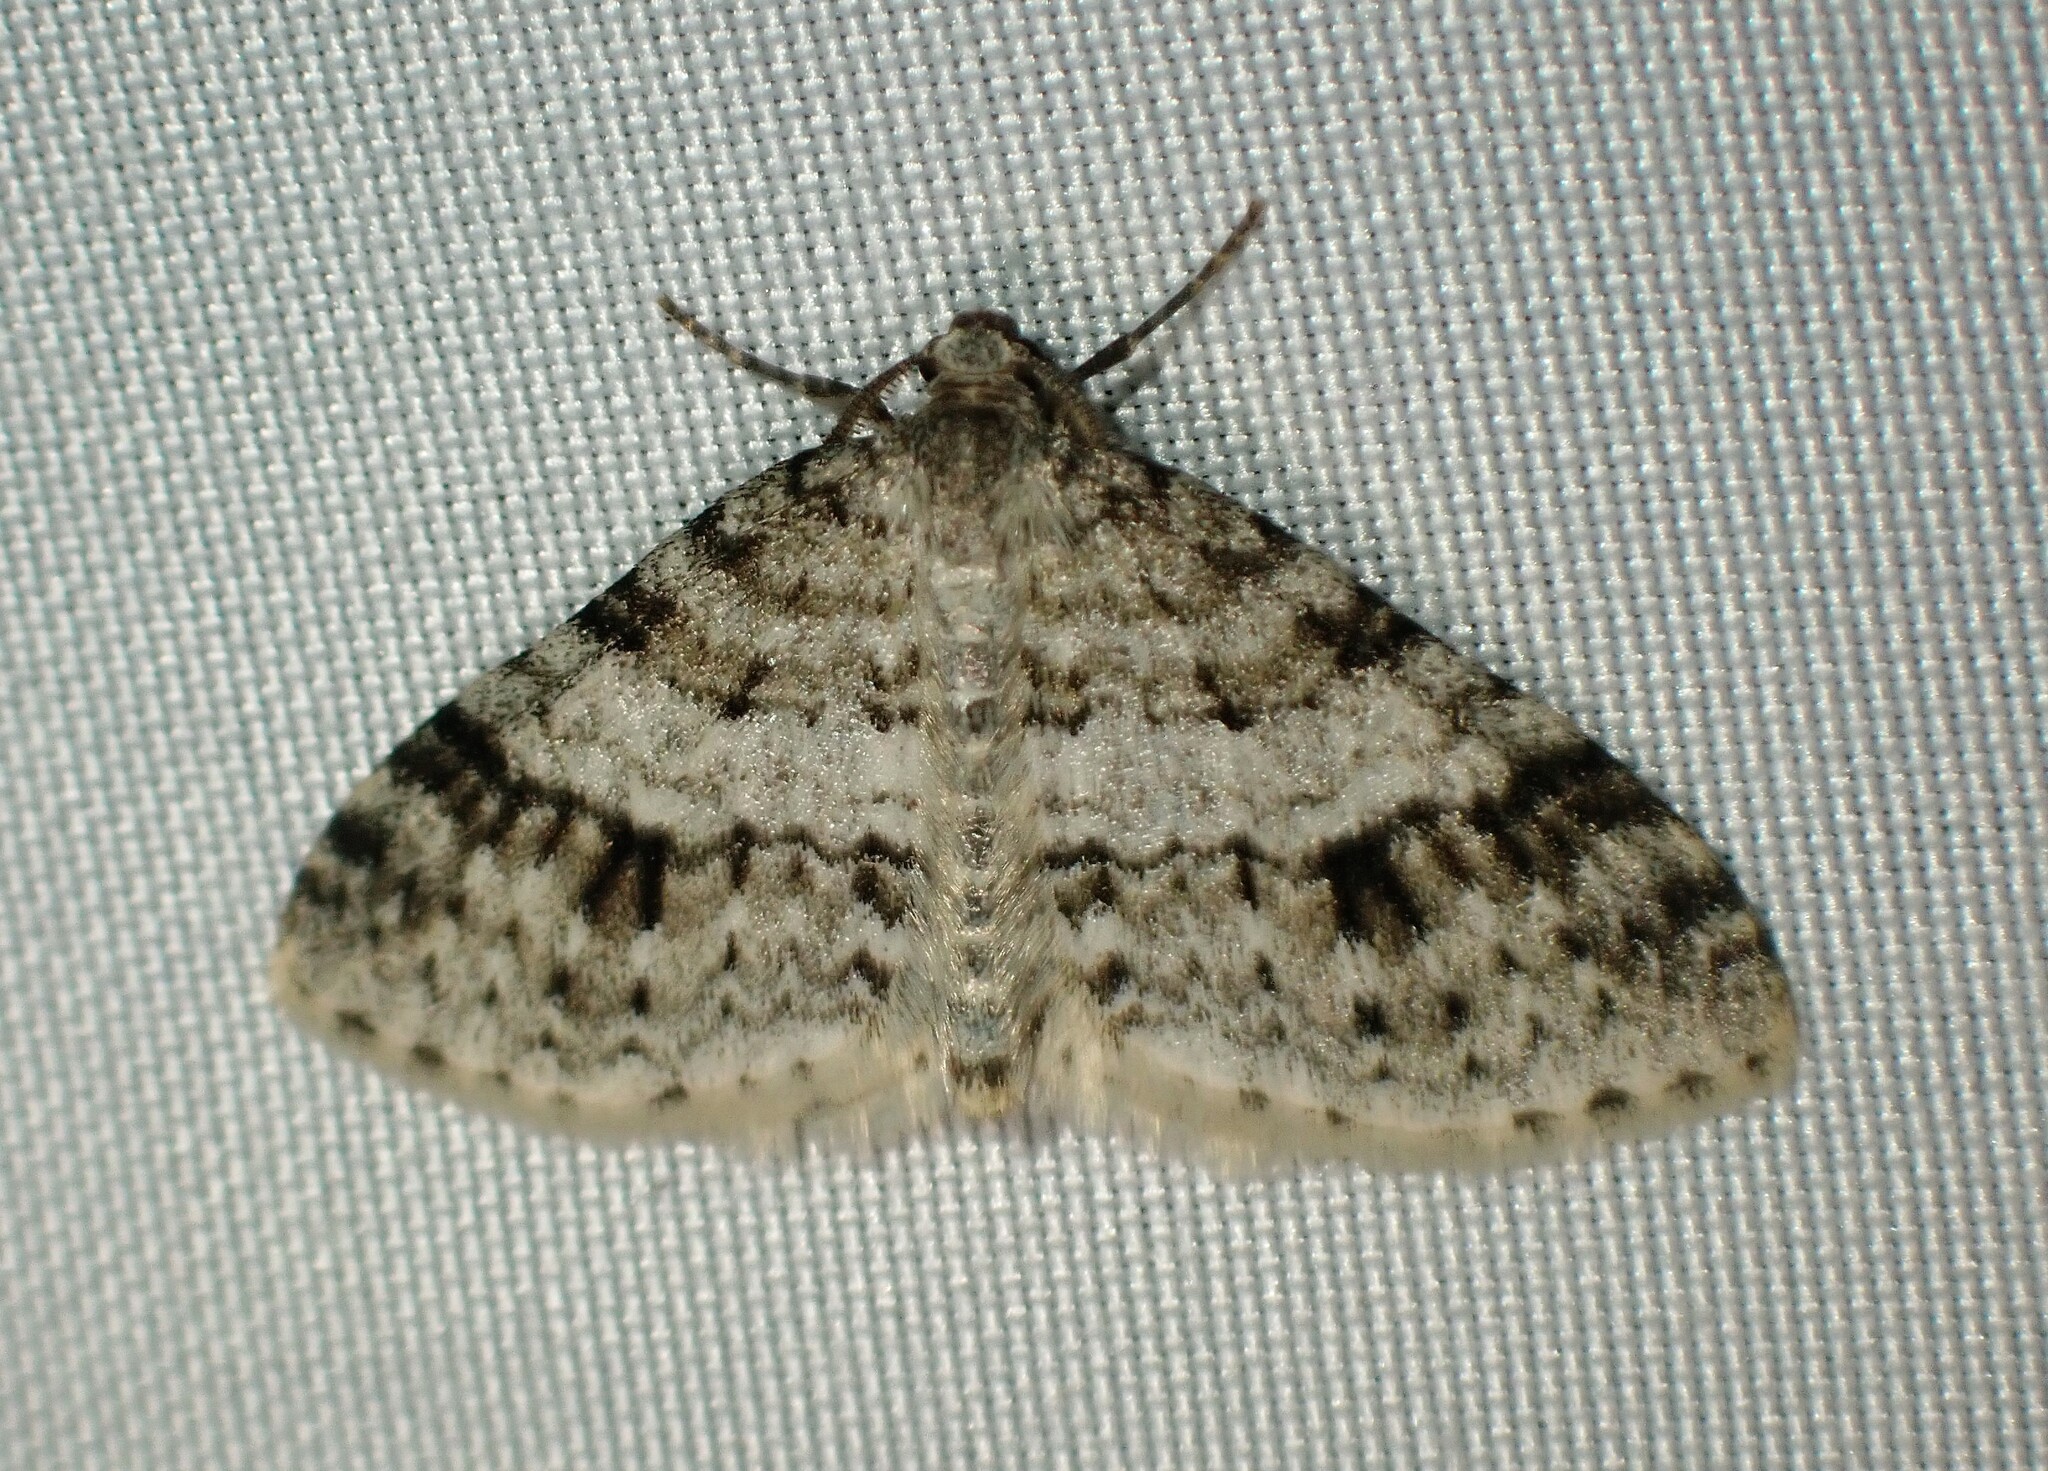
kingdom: Animalia
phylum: Arthropoda
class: Insecta
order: Lepidoptera
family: Geometridae
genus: Venusia
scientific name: Venusia cambrica
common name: Welsh wave
